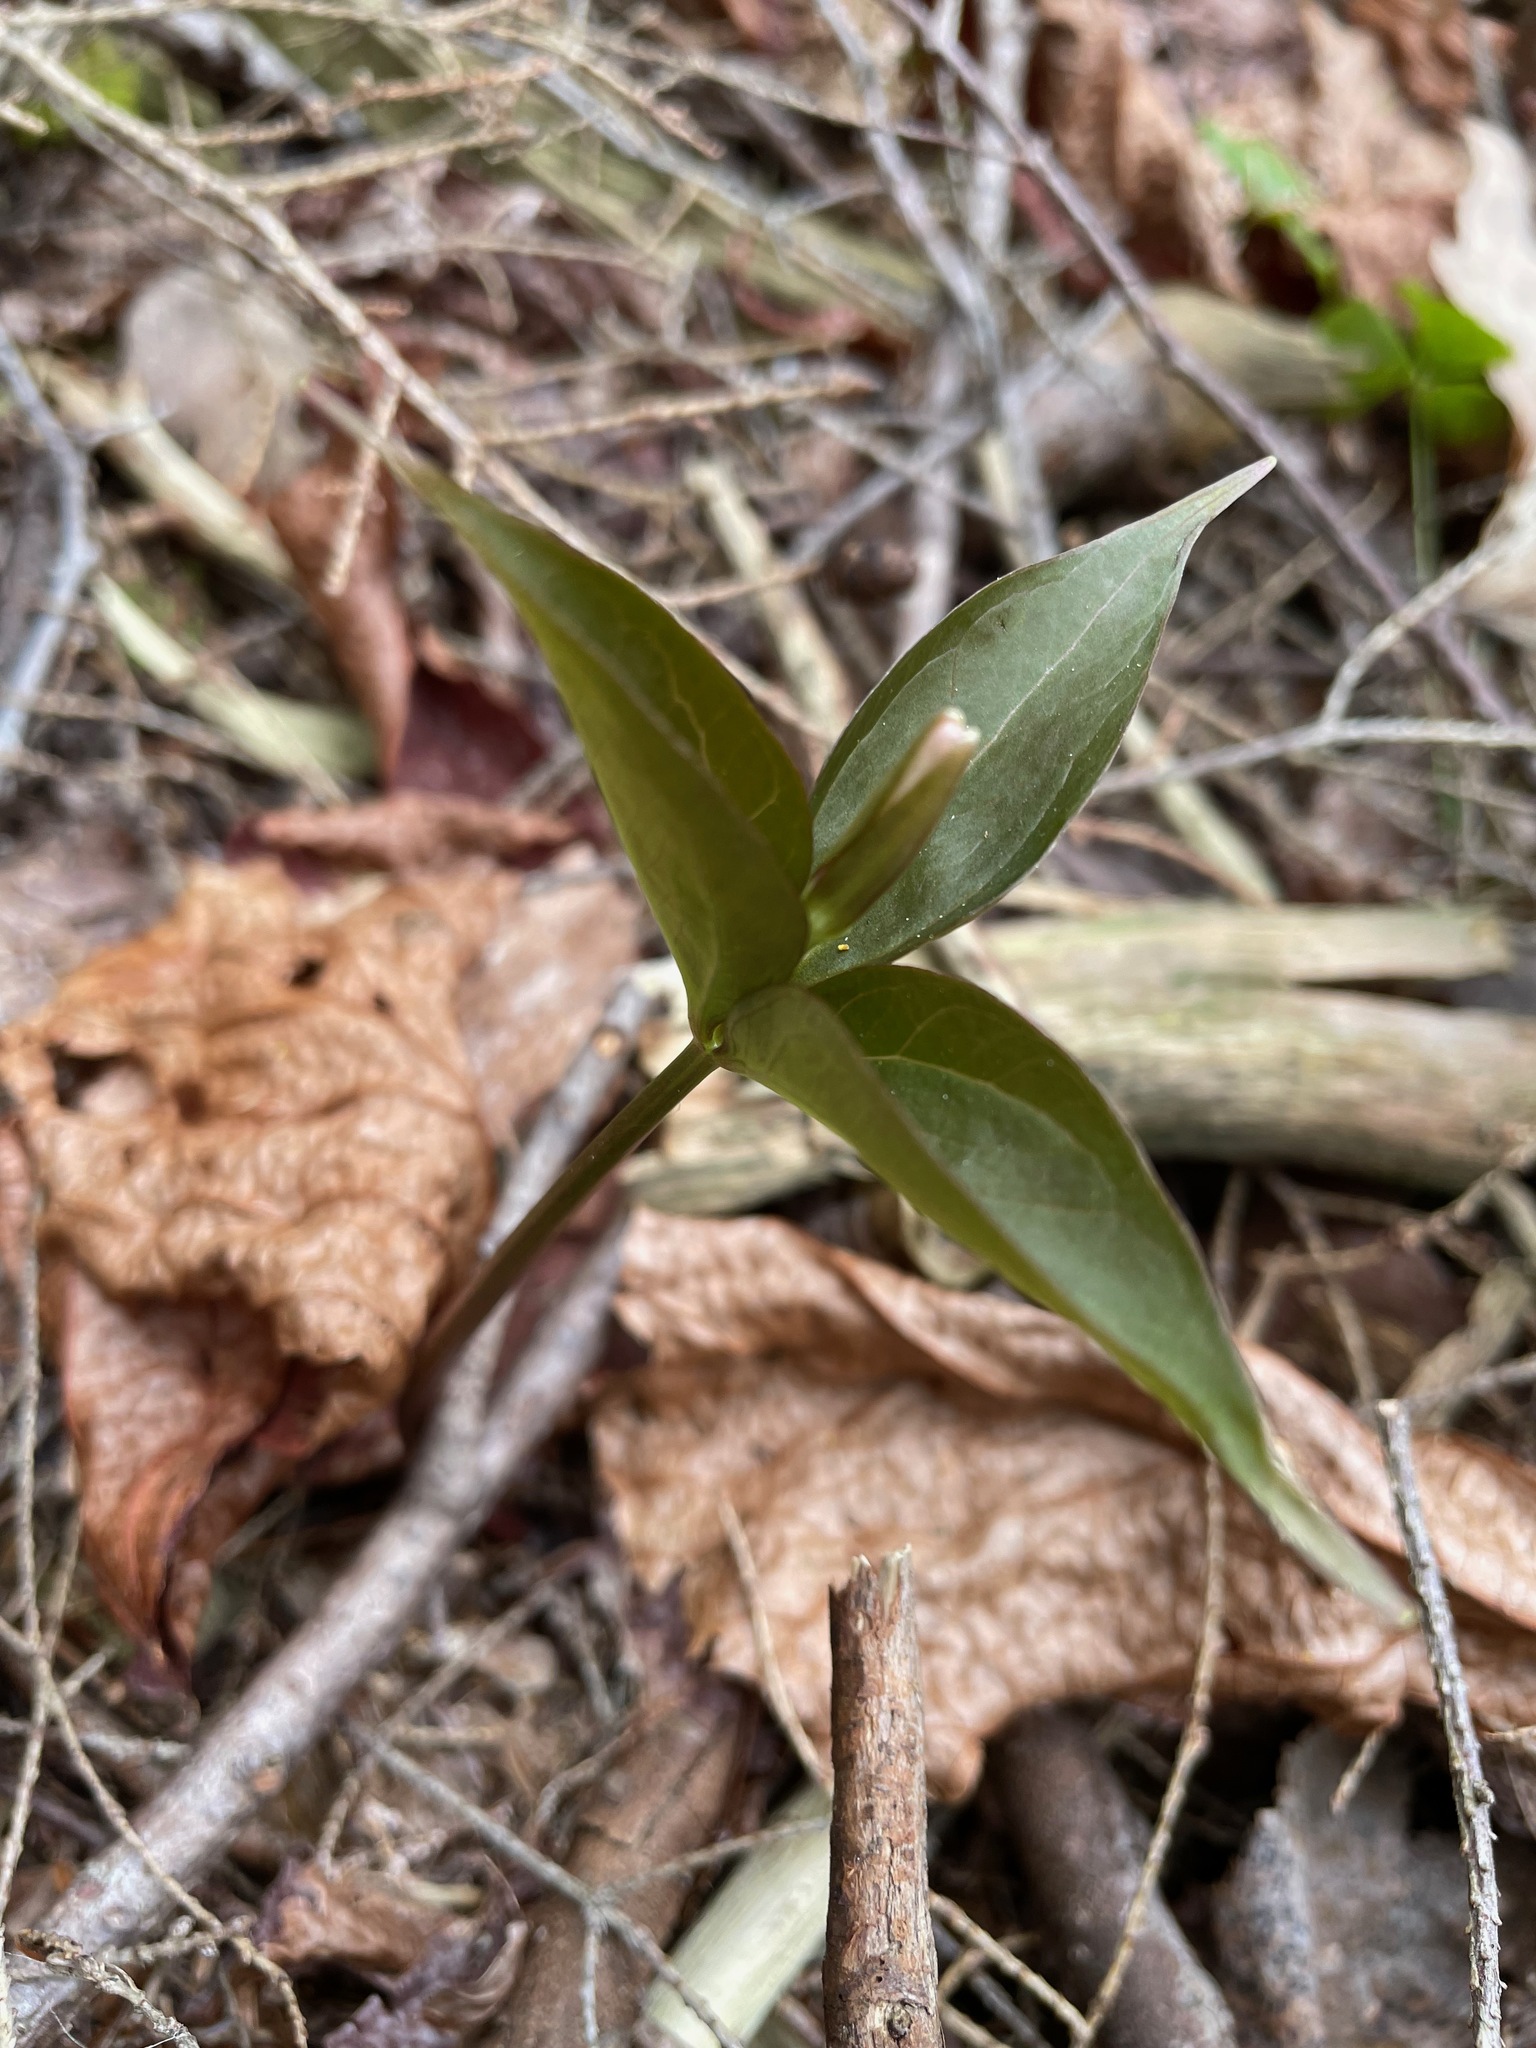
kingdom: Plantae
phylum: Tracheophyta
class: Liliopsida
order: Liliales
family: Melanthiaceae
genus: Trillium
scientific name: Trillium undulatum
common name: Paint trillium
